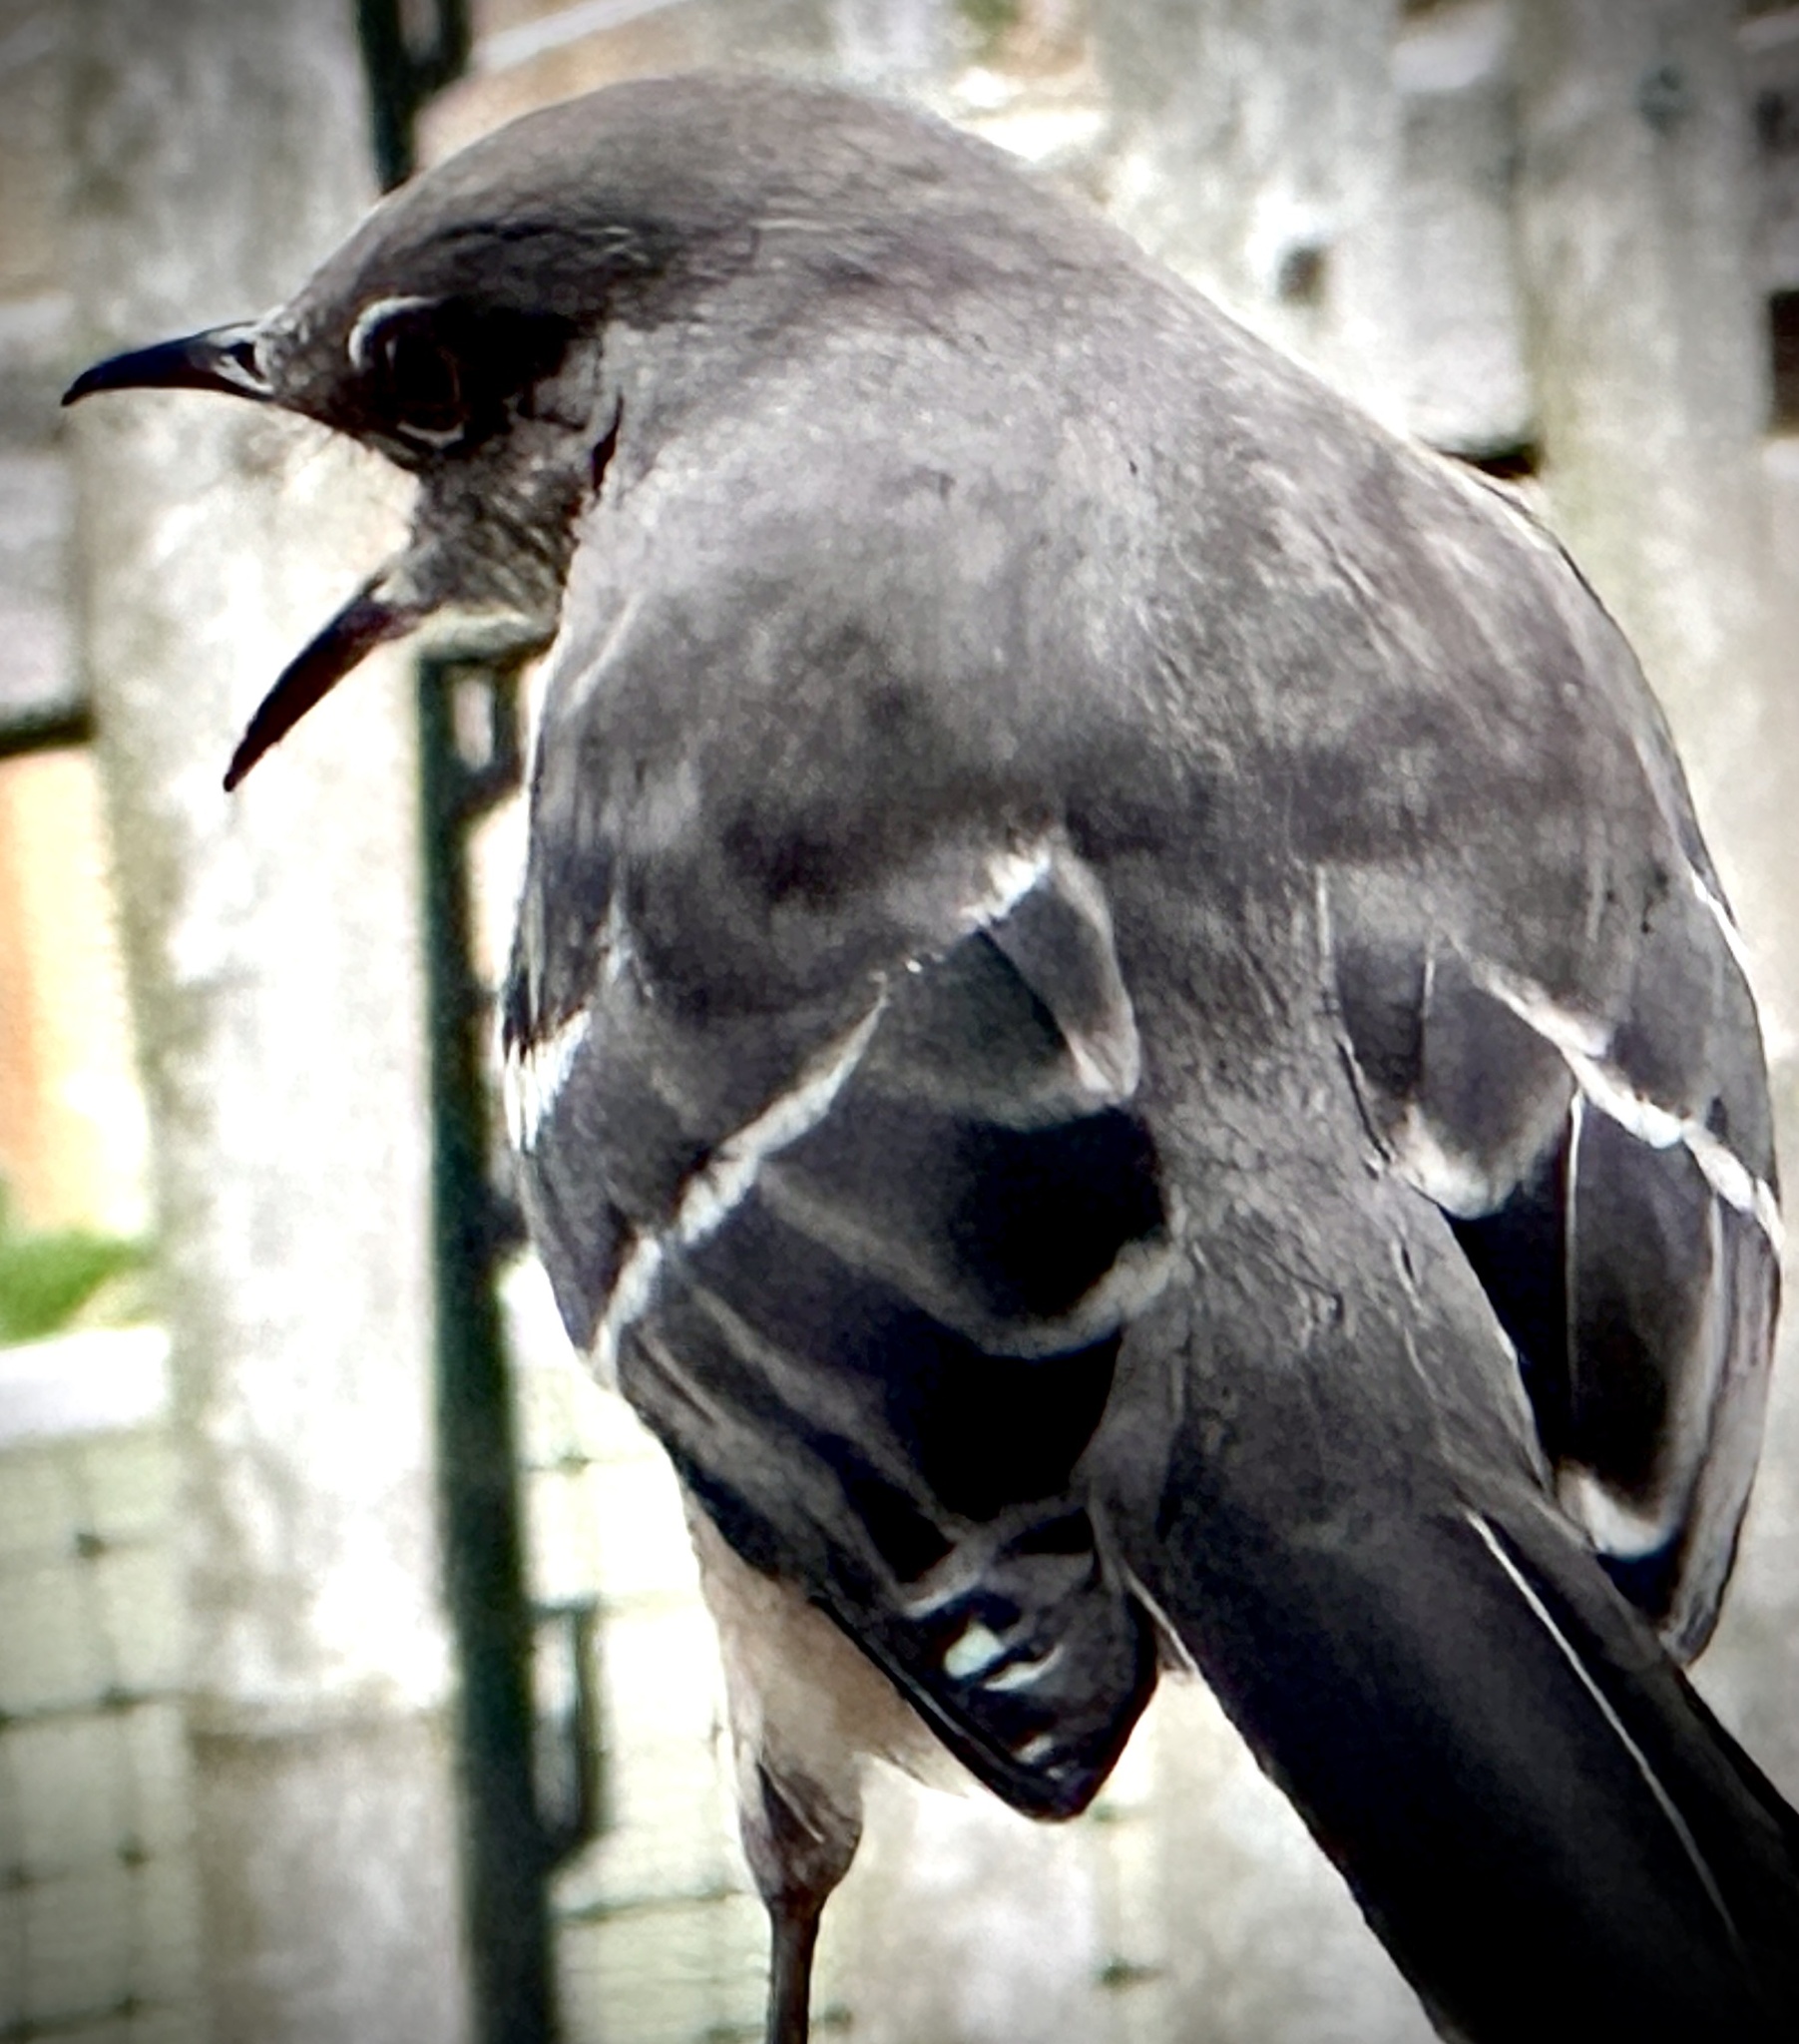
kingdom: Animalia
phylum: Chordata
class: Aves
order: Passeriformes
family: Mimidae
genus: Mimus
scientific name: Mimus polyglottos
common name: Northern mockingbird
